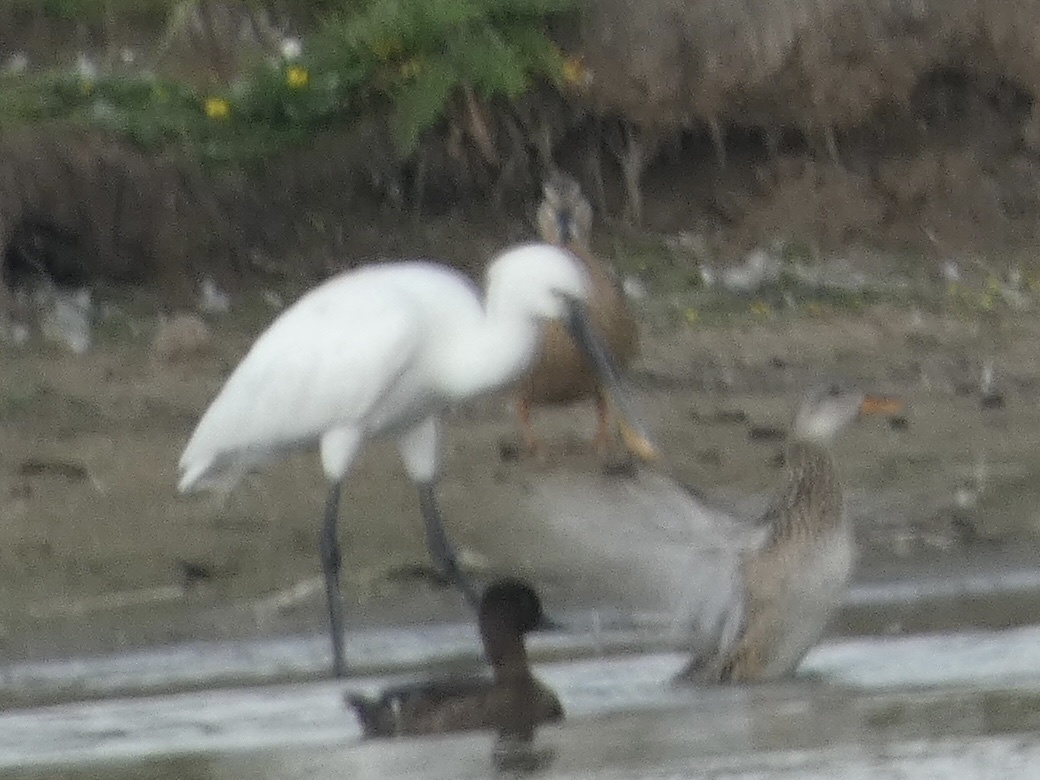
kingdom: Animalia
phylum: Chordata
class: Aves
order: Pelecaniformes
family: Threskiornithidae
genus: Platalea
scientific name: Platalea leucorodia
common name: Eurasian spoonbill
